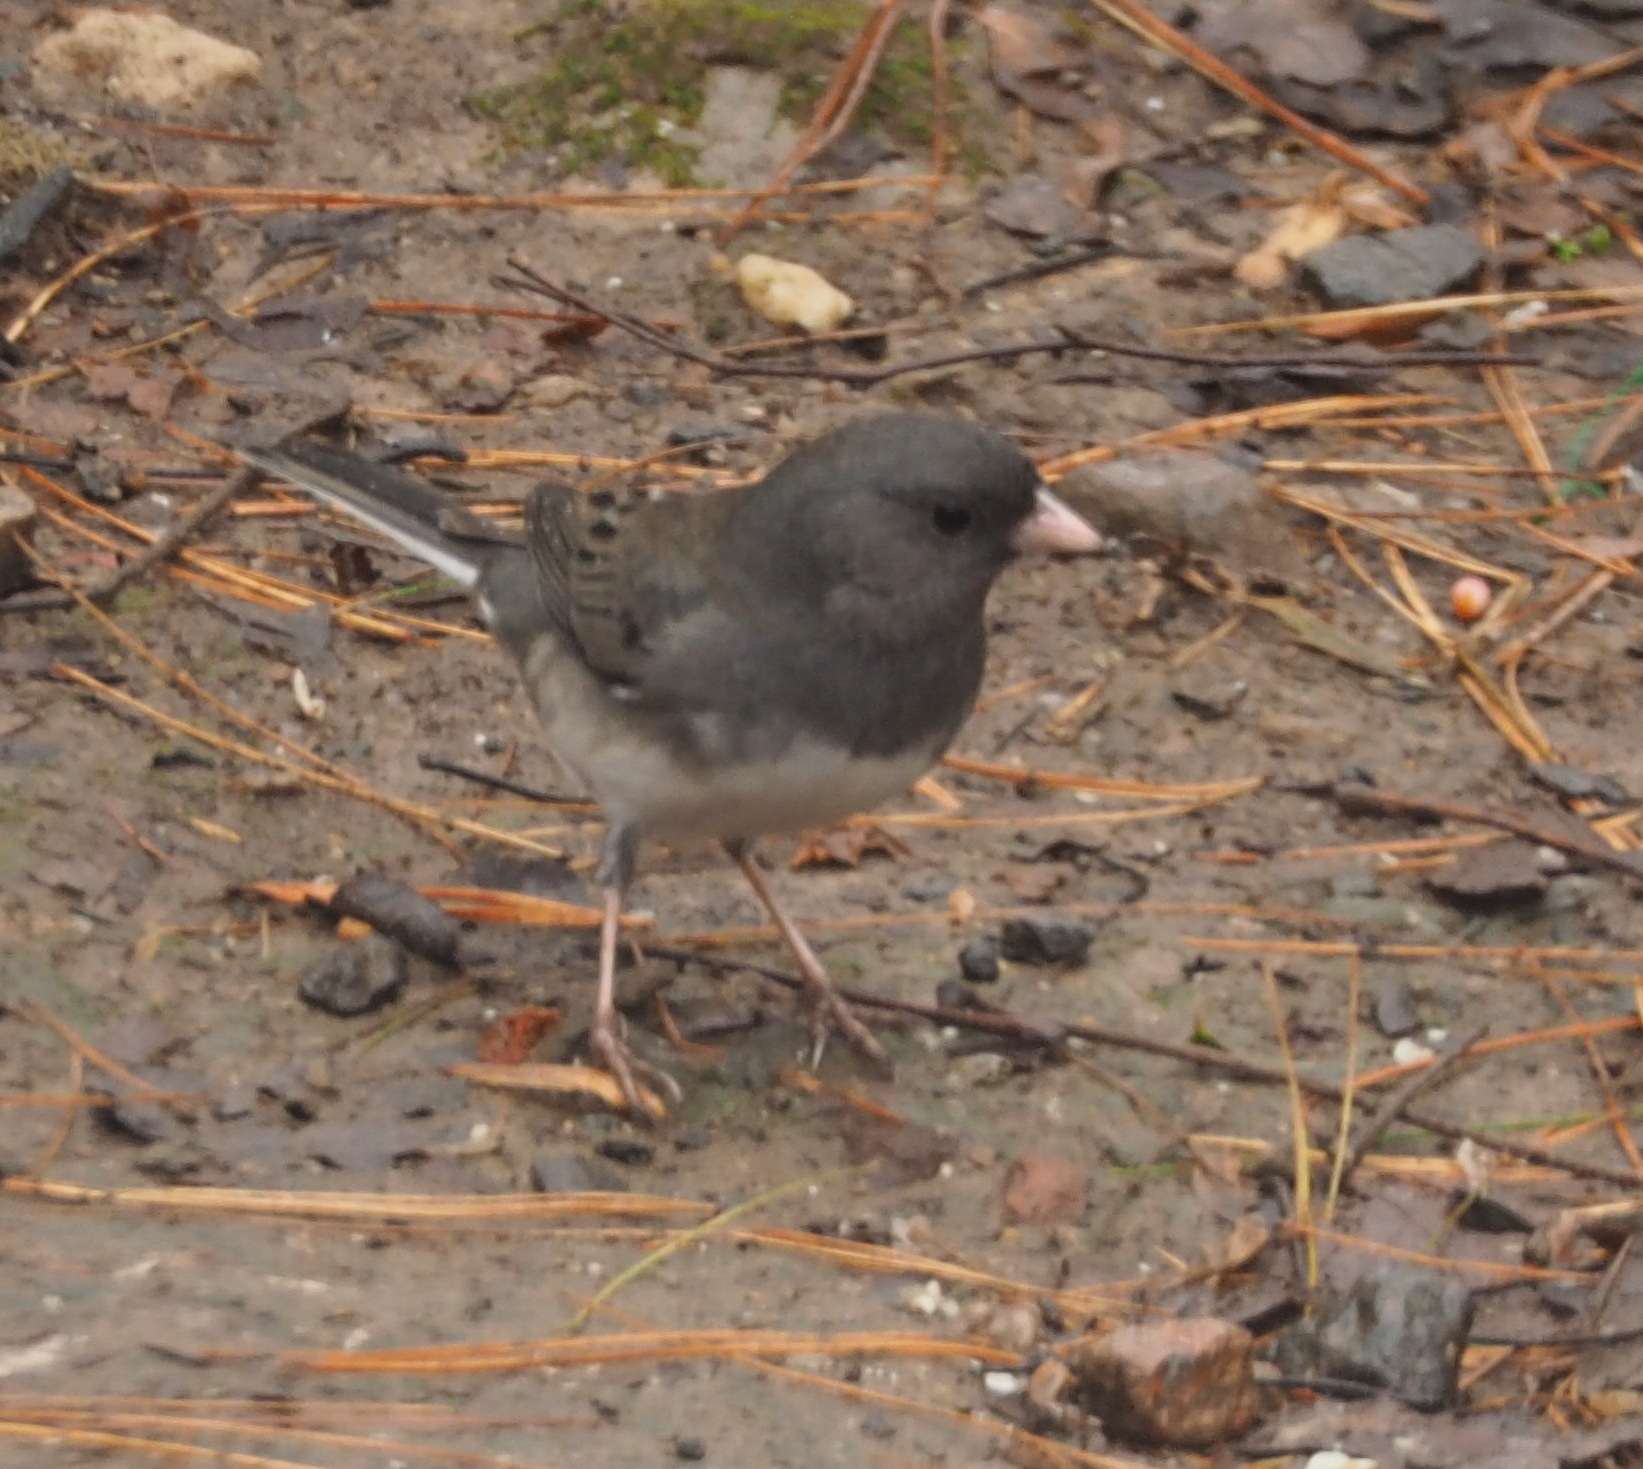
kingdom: Animalia
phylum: Chordata
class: Aves
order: Passeriformes
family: Passerellidae
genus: Junco
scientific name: Junco hyemalis
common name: Dark-eyed junco
